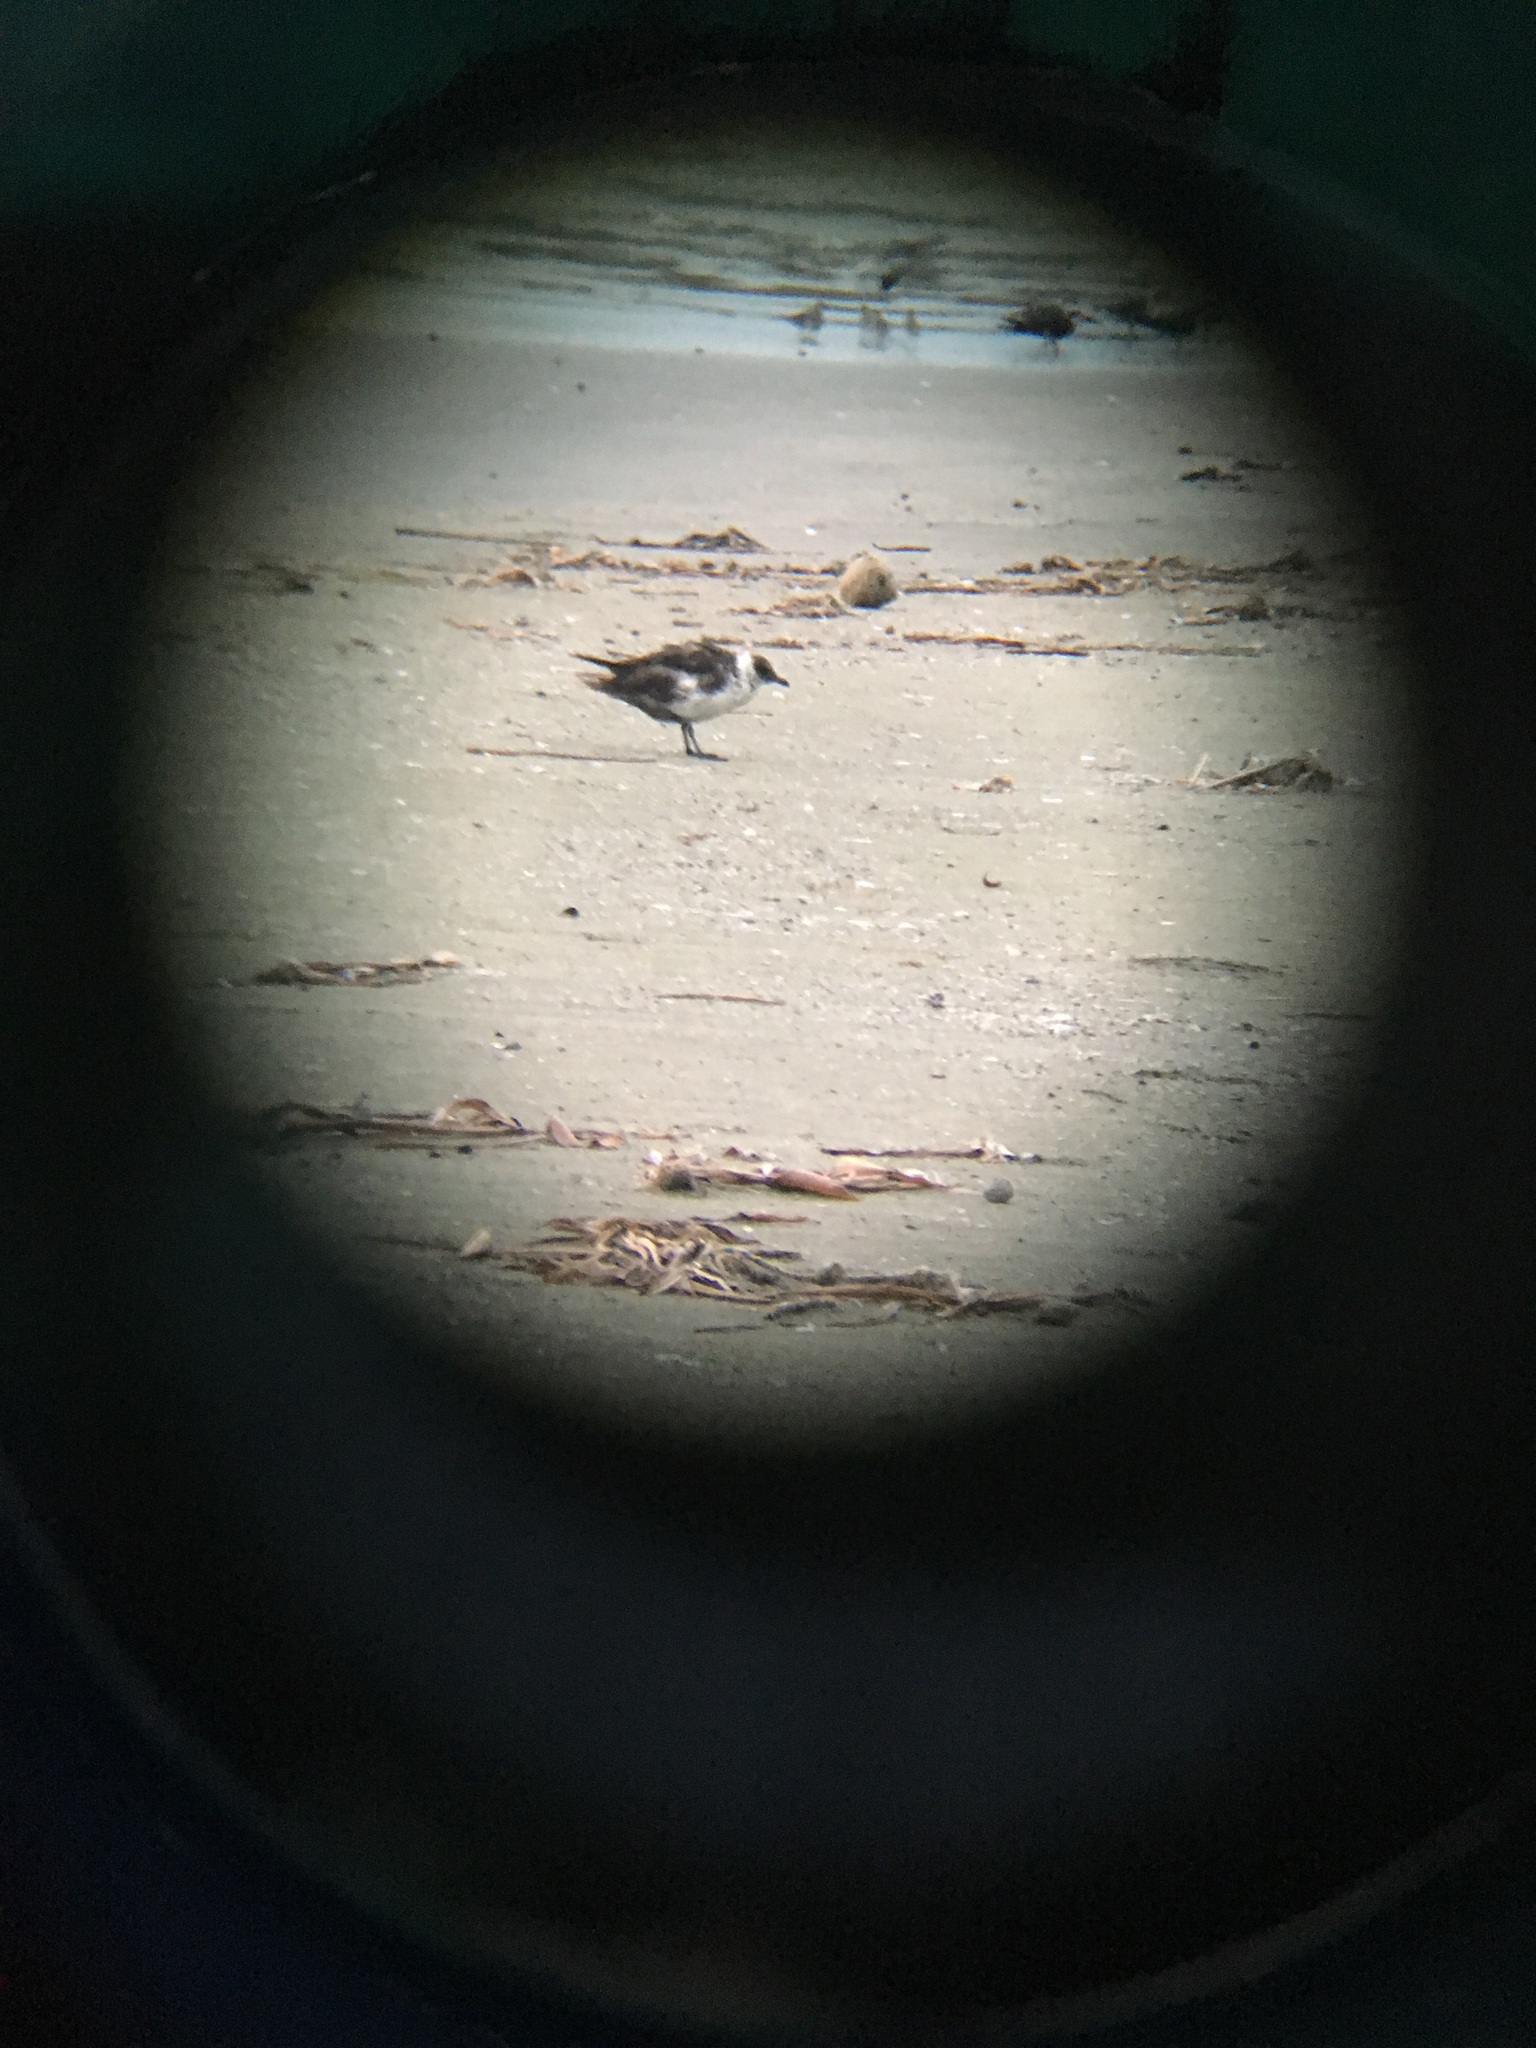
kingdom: Animalia
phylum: Chordata
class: Aves
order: Charadriiformes
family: Stercorariidae
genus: Stercorarius
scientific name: Stercorarius pomarinus
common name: Pomarine jaeger
